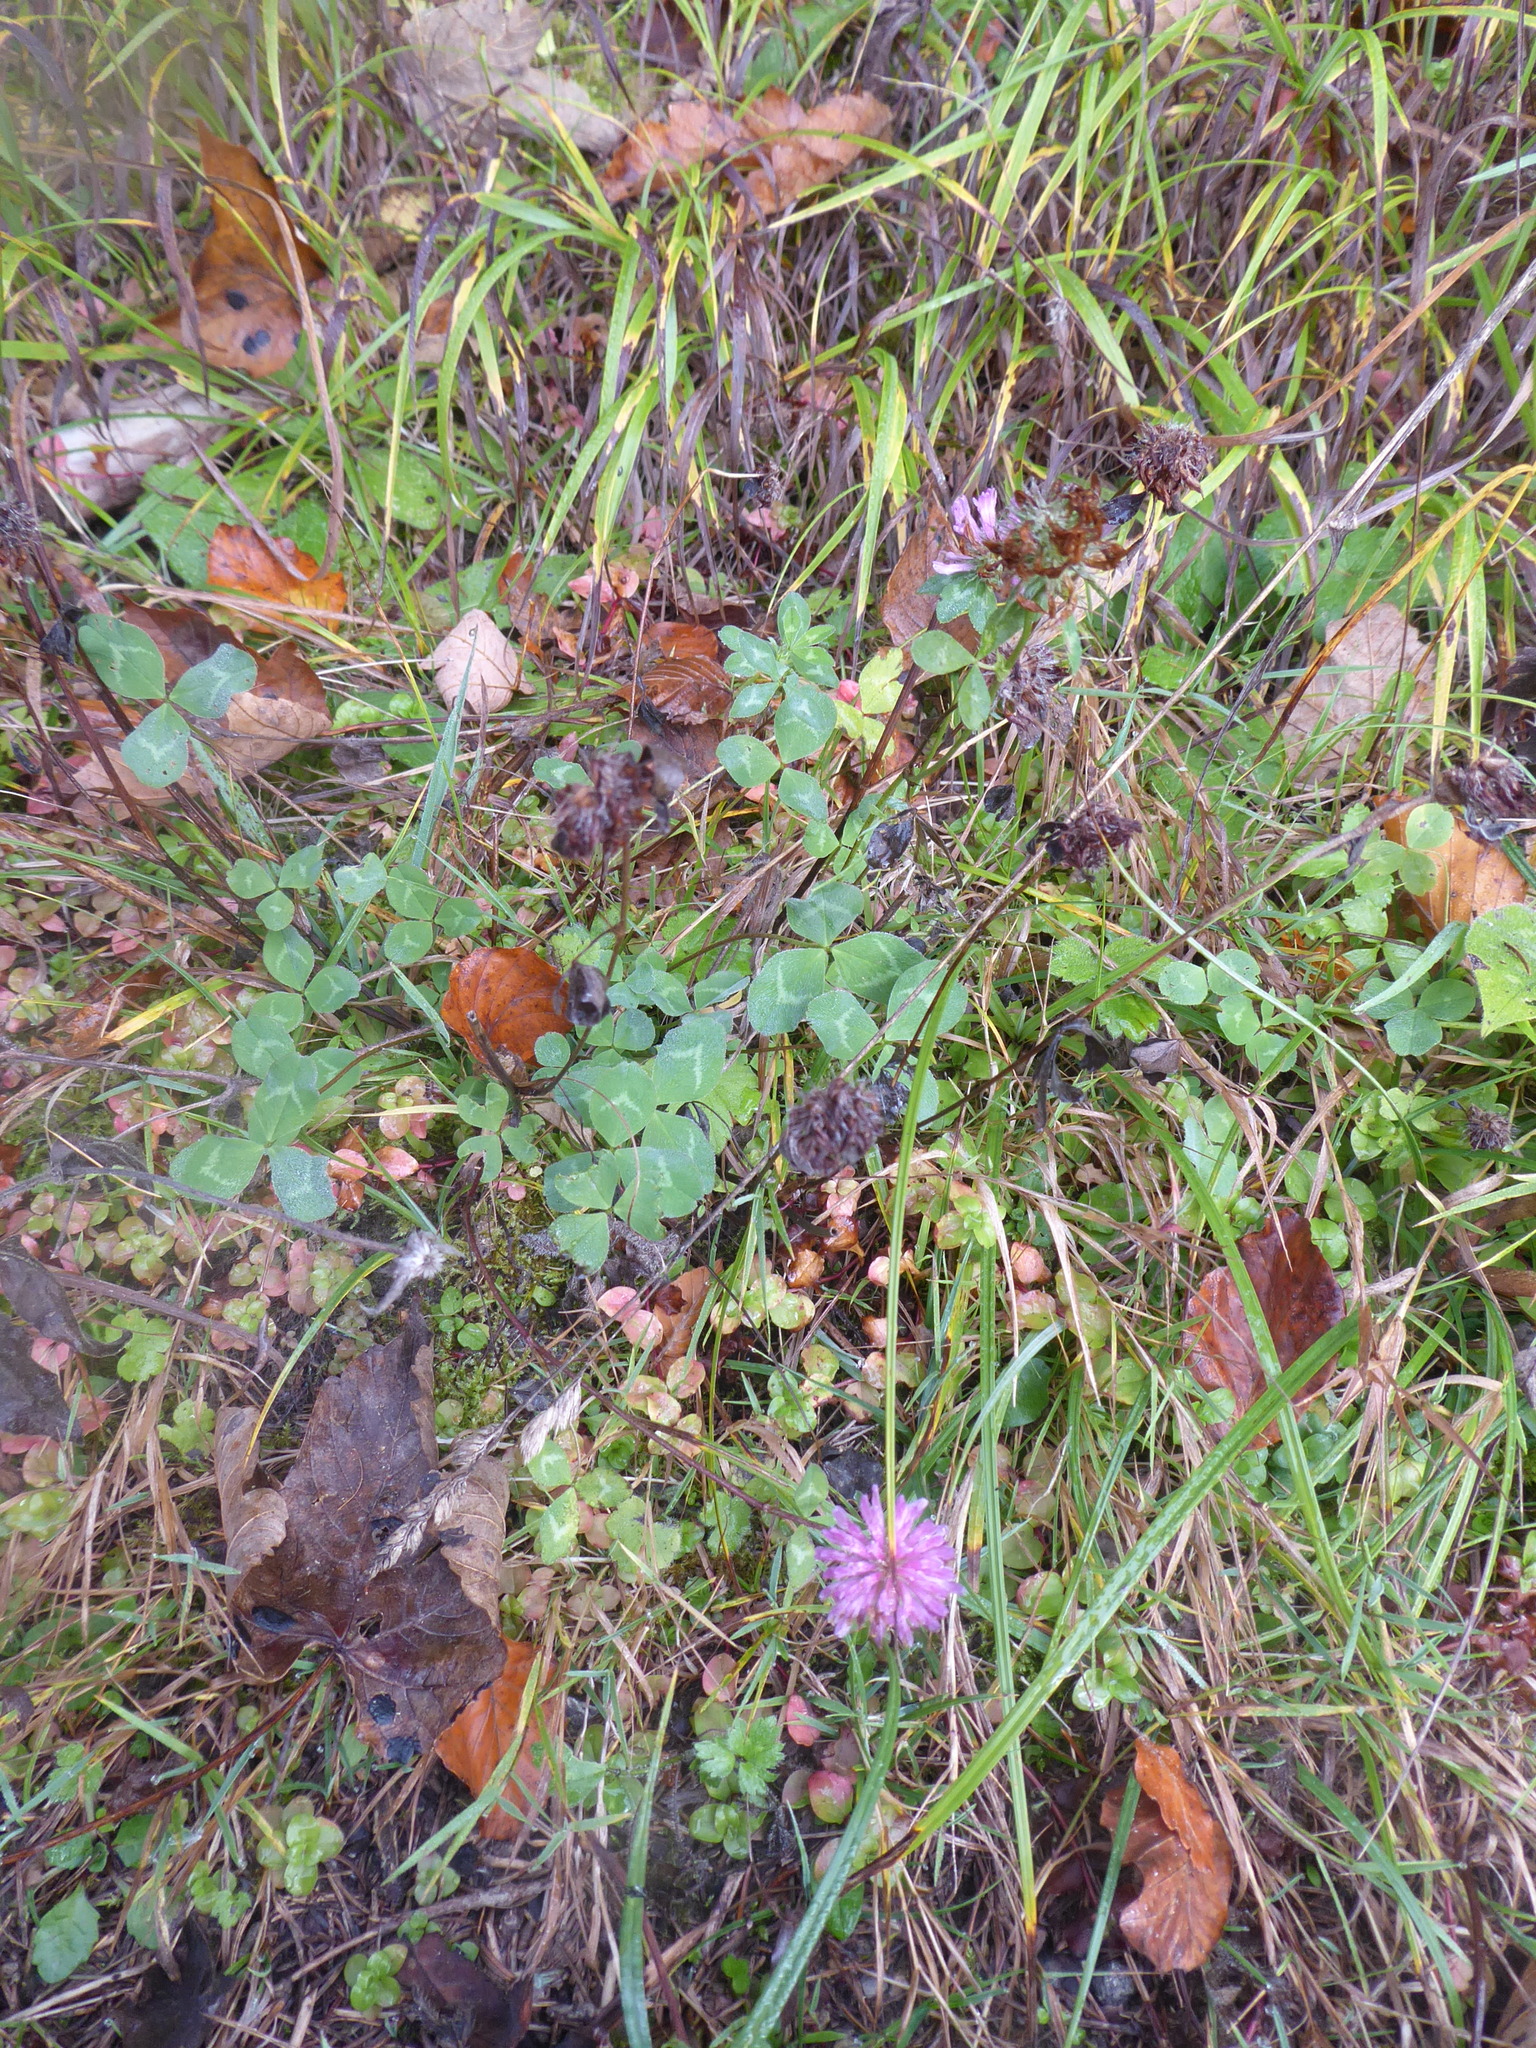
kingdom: Plantae
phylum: Tracheophyta
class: Magnoliopsida
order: Fabales
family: Fabaceae
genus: Trifolium
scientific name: Trifolium pratense
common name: Red clover
